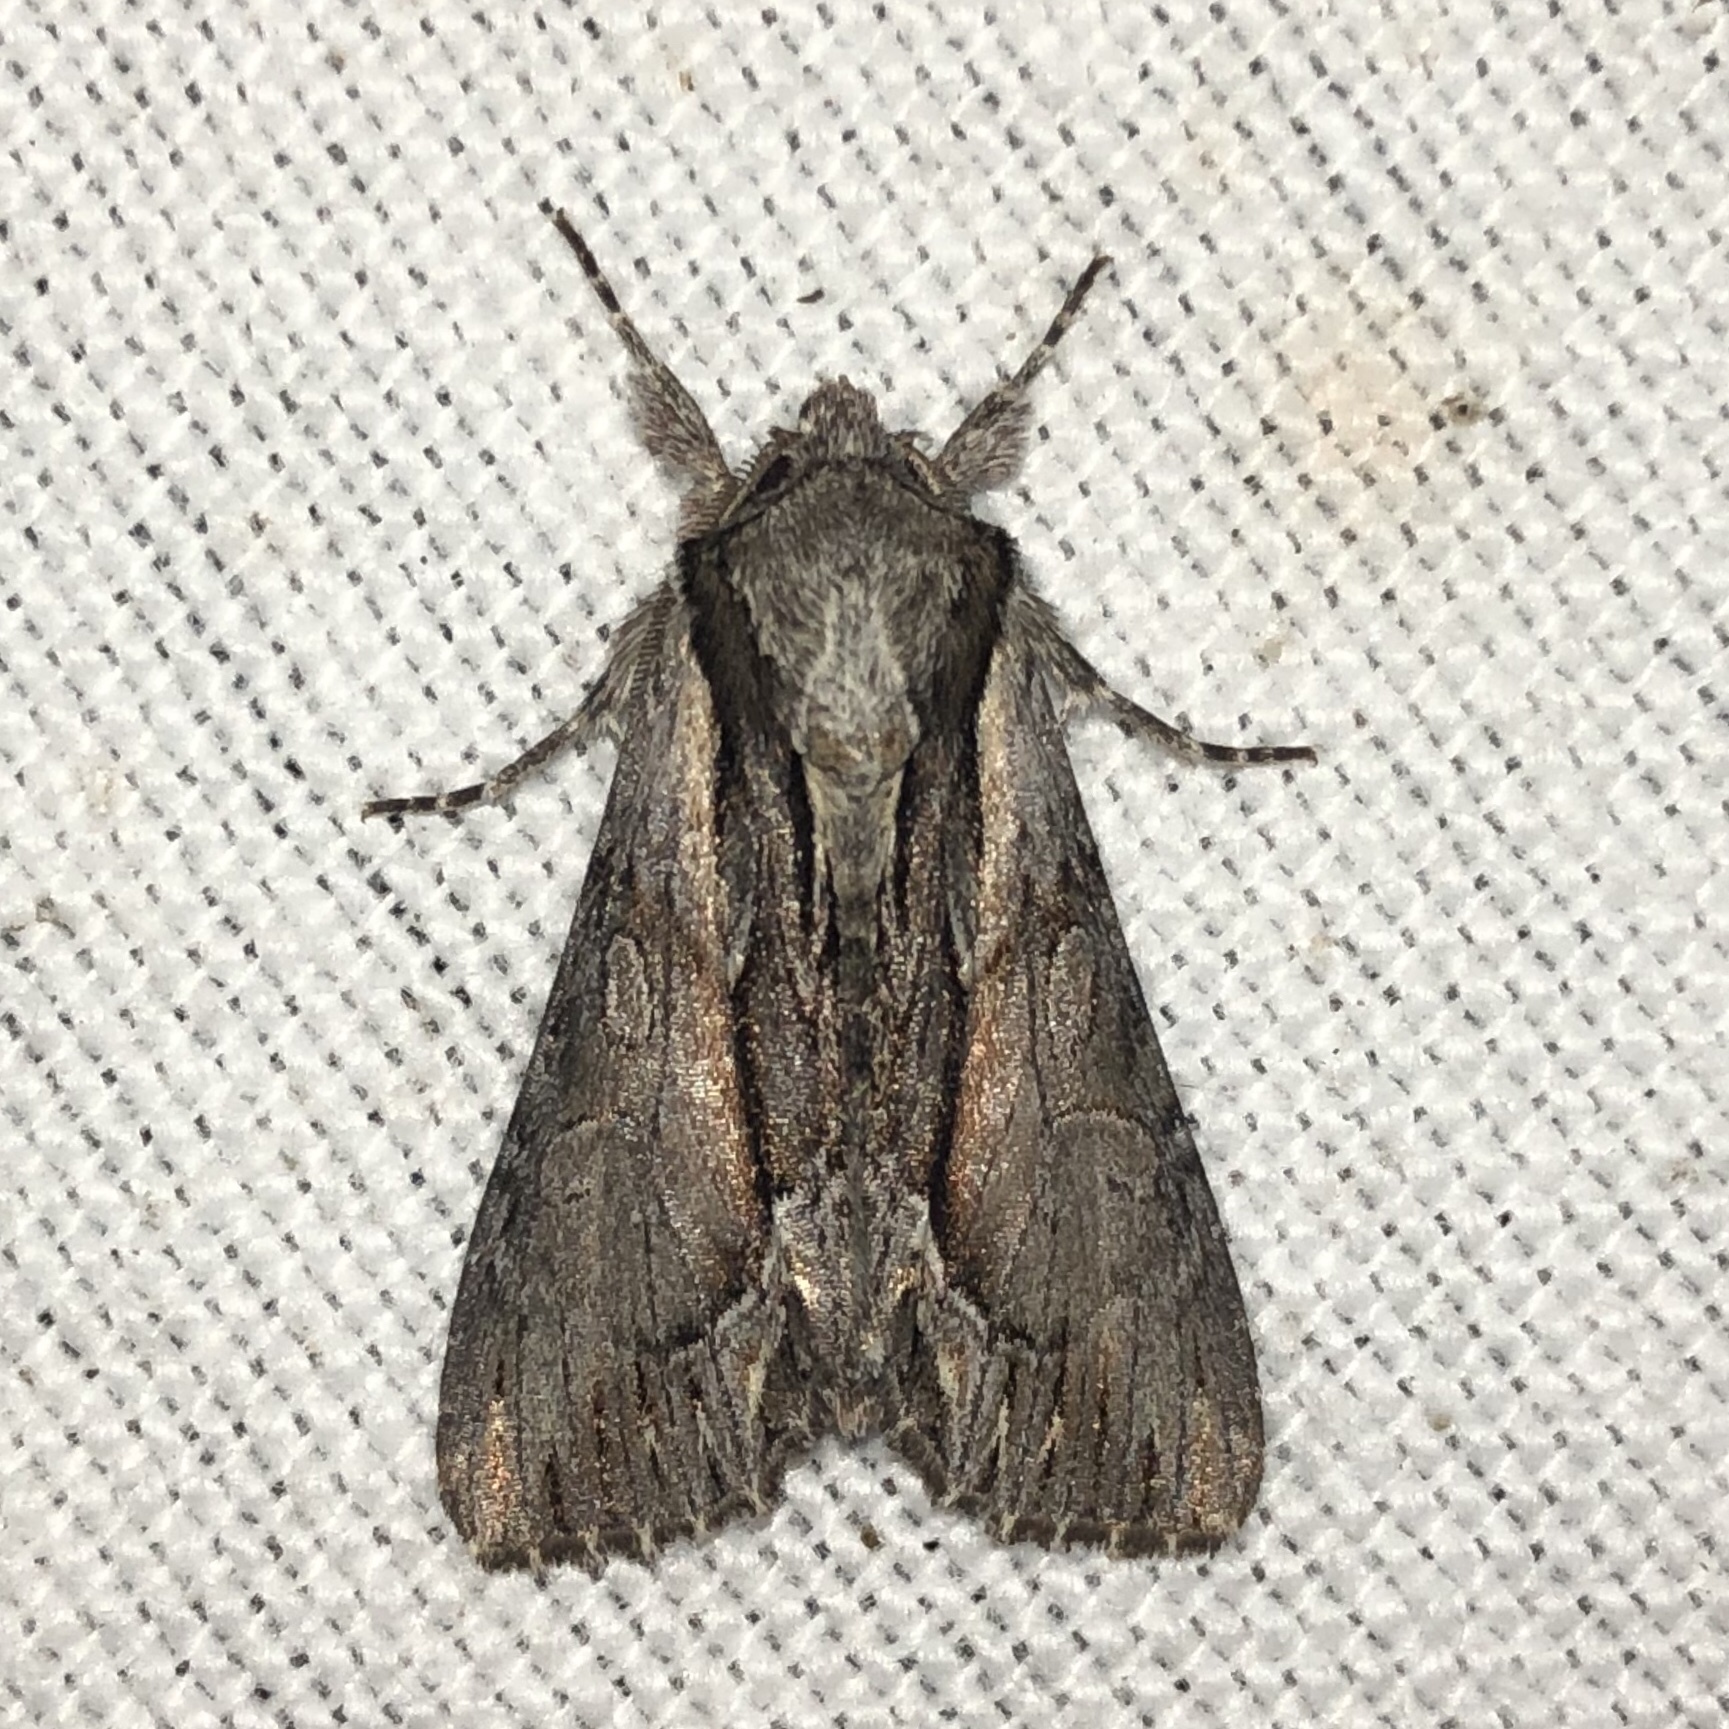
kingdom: Animalia
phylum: Arthropoda
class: Insecta
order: Lepidoptera
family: Noctuidae
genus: Hyppa
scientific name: Hyppa xylinoides
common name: Common hyppa moth
